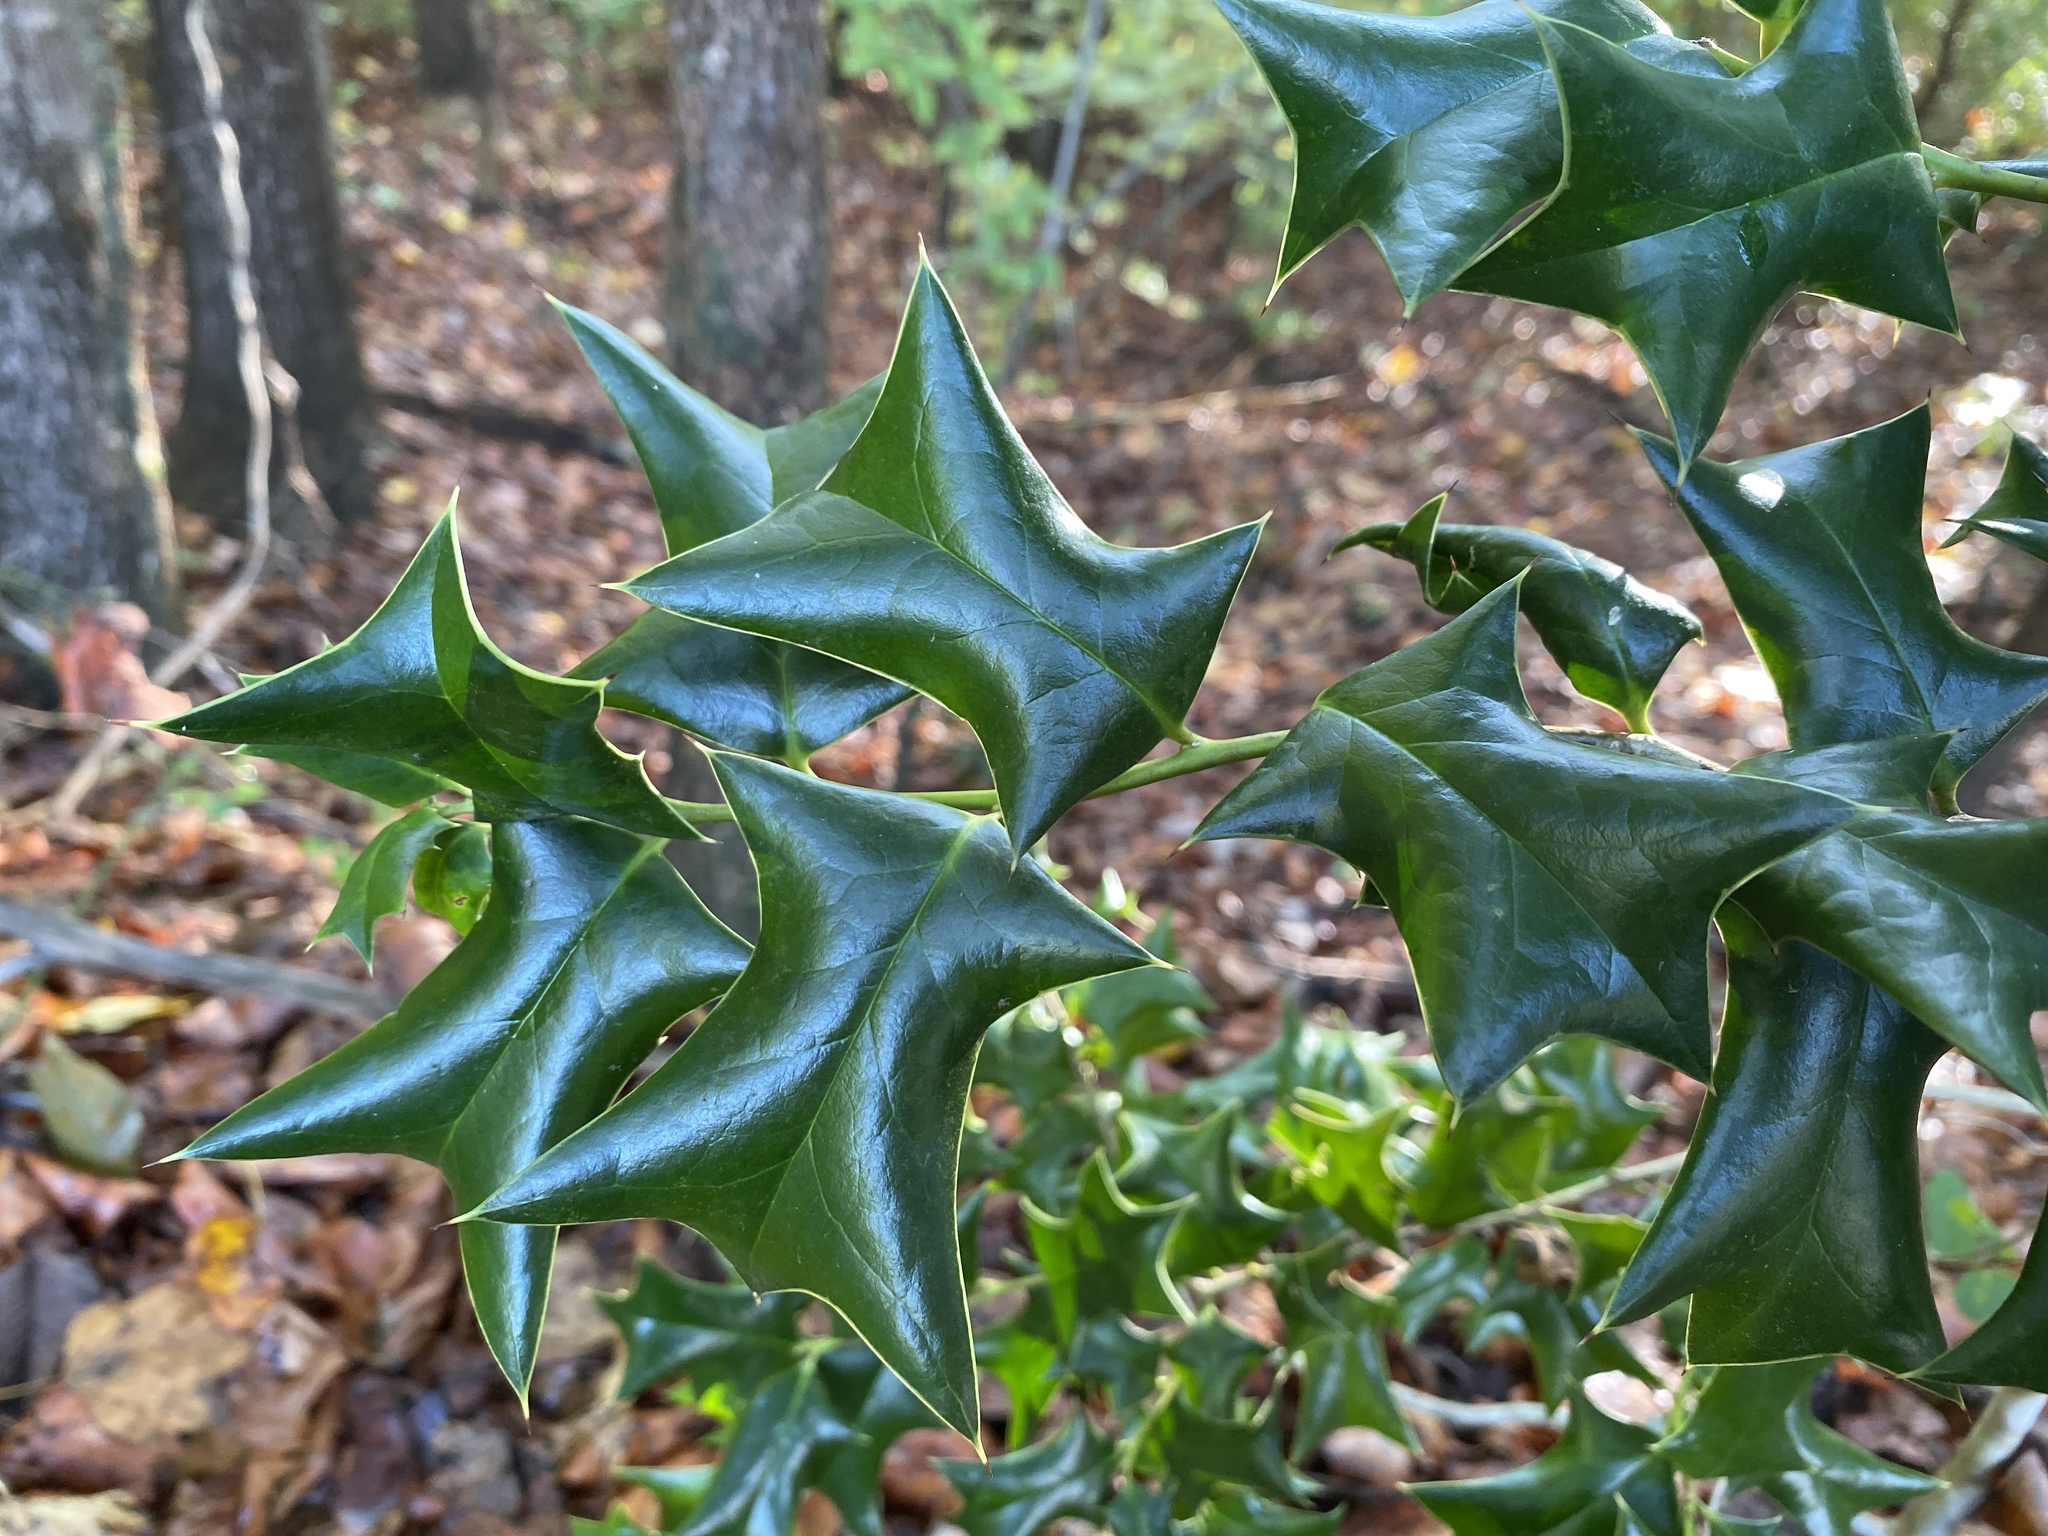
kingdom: Plantae
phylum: Tracheophyta
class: Magnoliopsida
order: Aquifoliales
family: Aquifoliaceae
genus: Ilex
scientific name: Ilex cornuta
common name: Chinese holly
